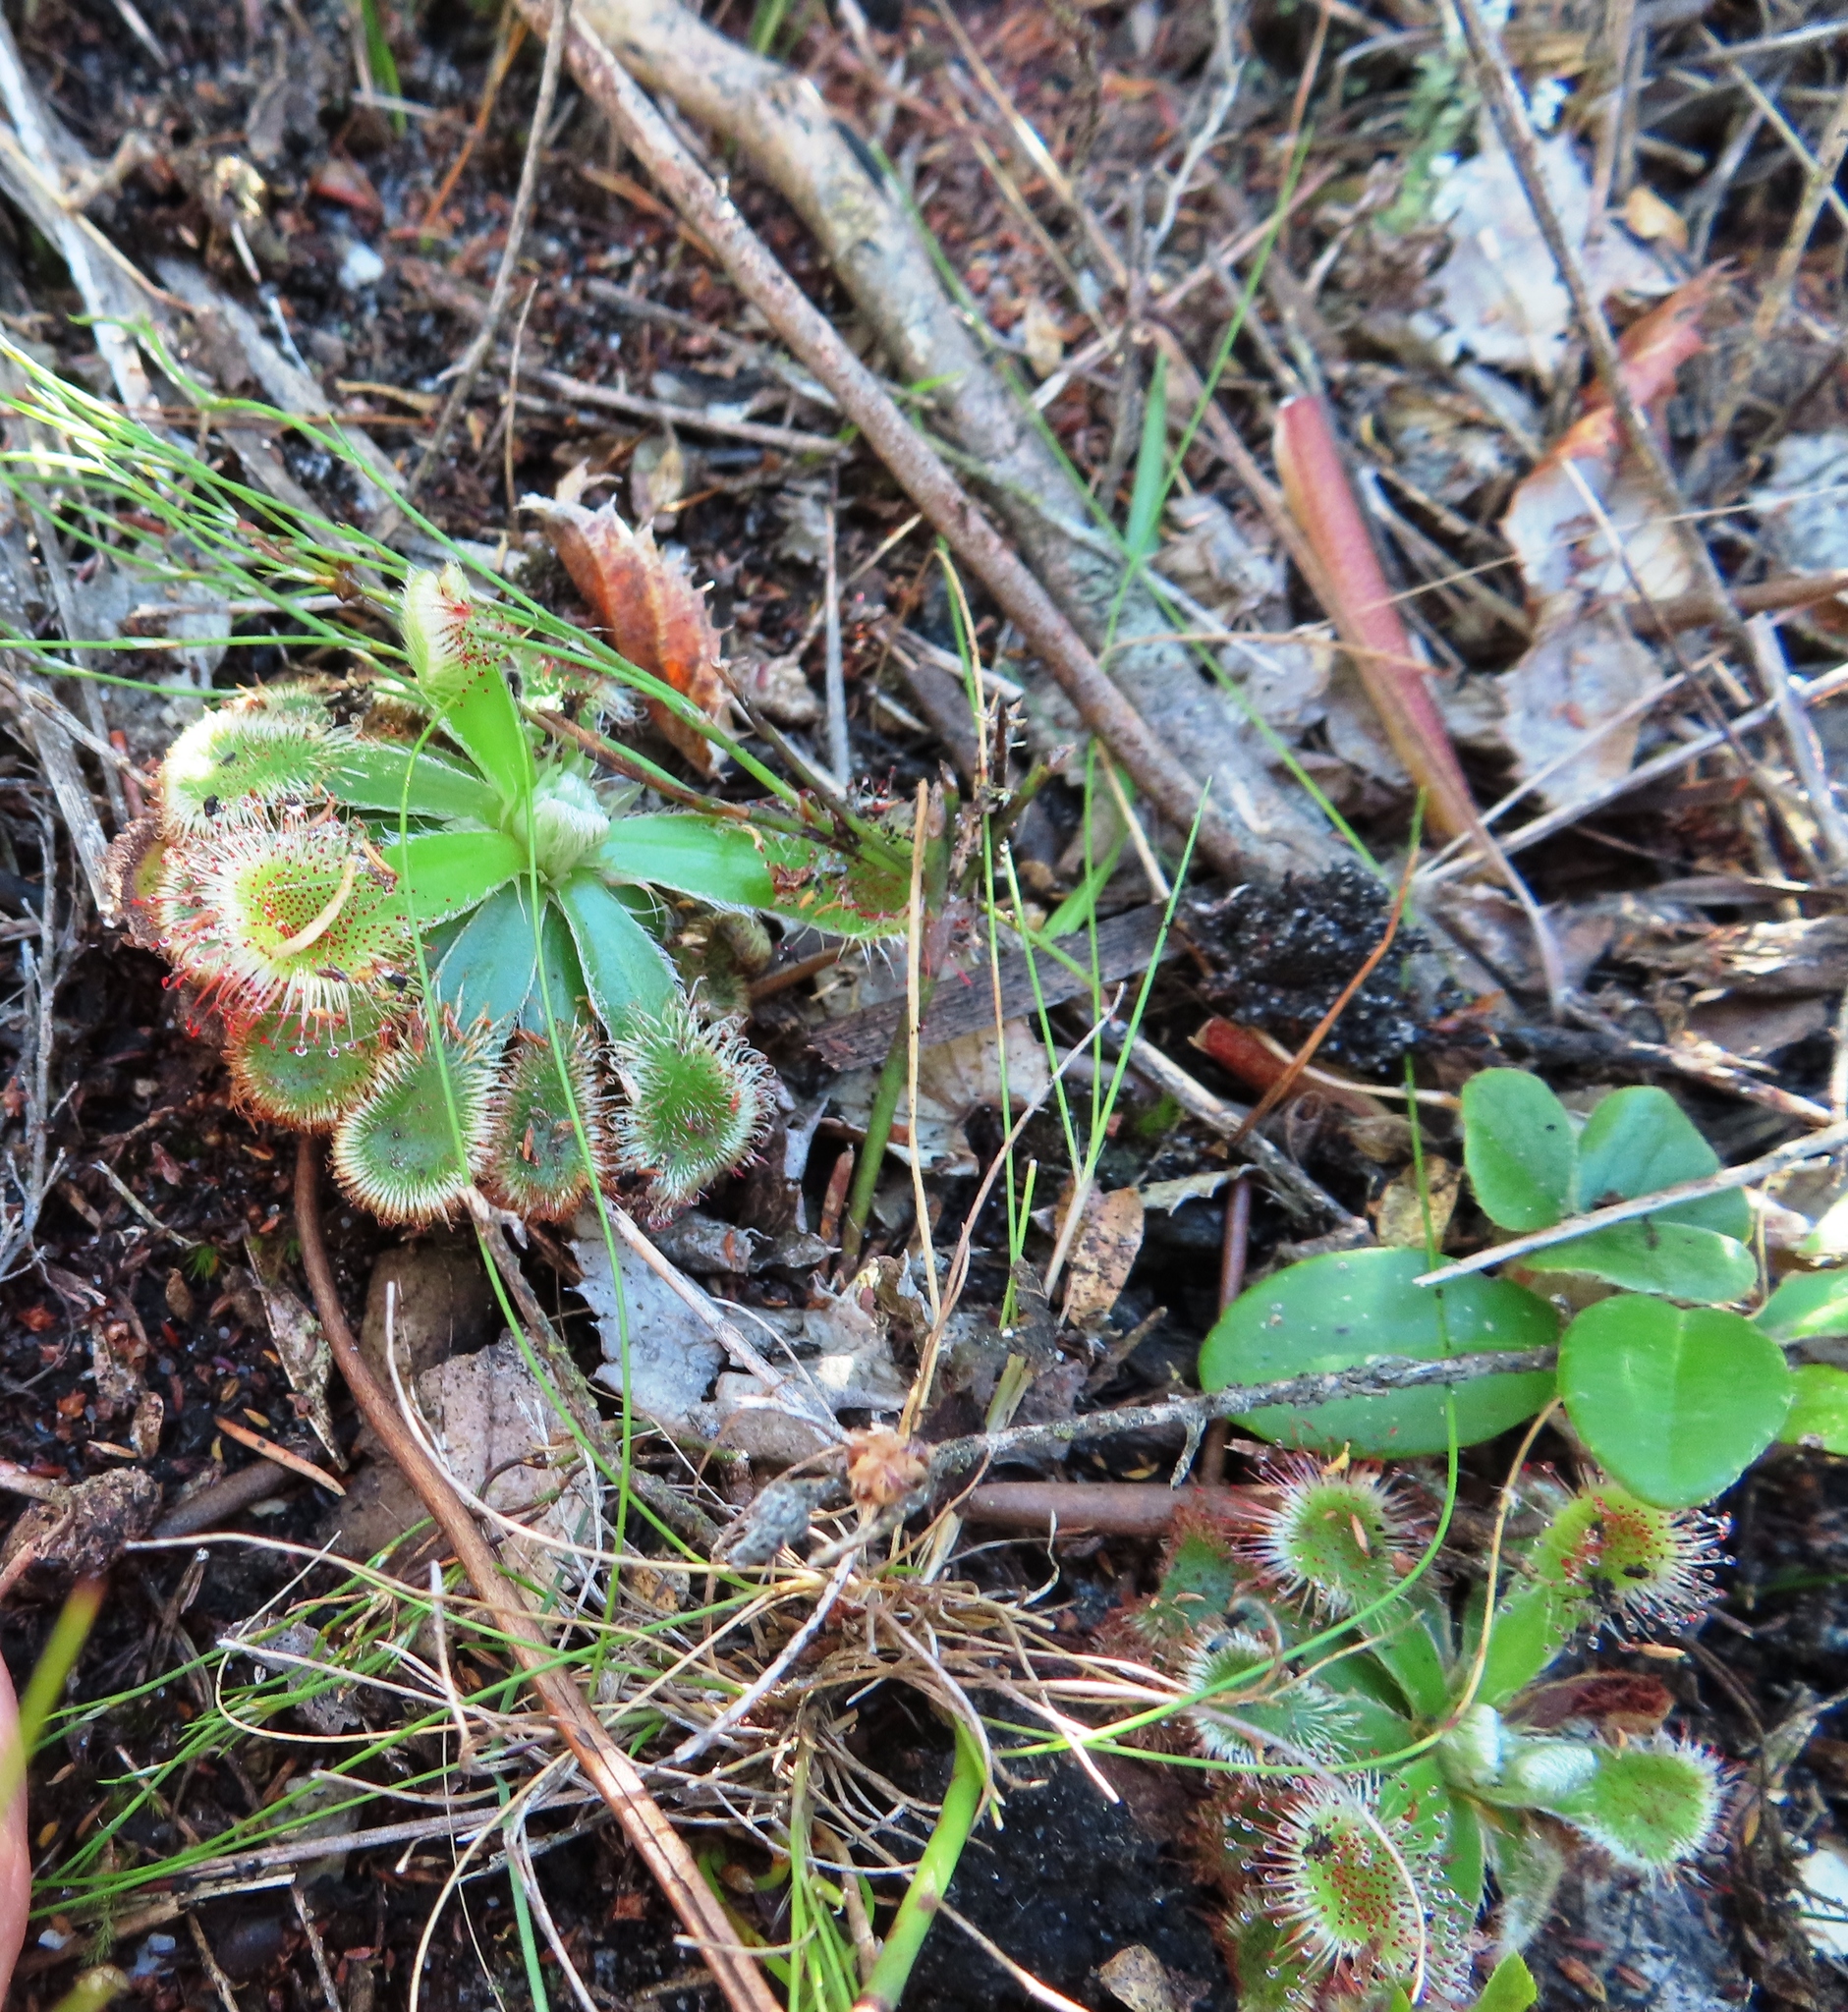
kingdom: Plantae
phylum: Tracheophyta
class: Magnoliopsida
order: Caryophyllales
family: Droseraceae
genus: Drosera
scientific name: Drosera aliciae
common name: Alice sundew
